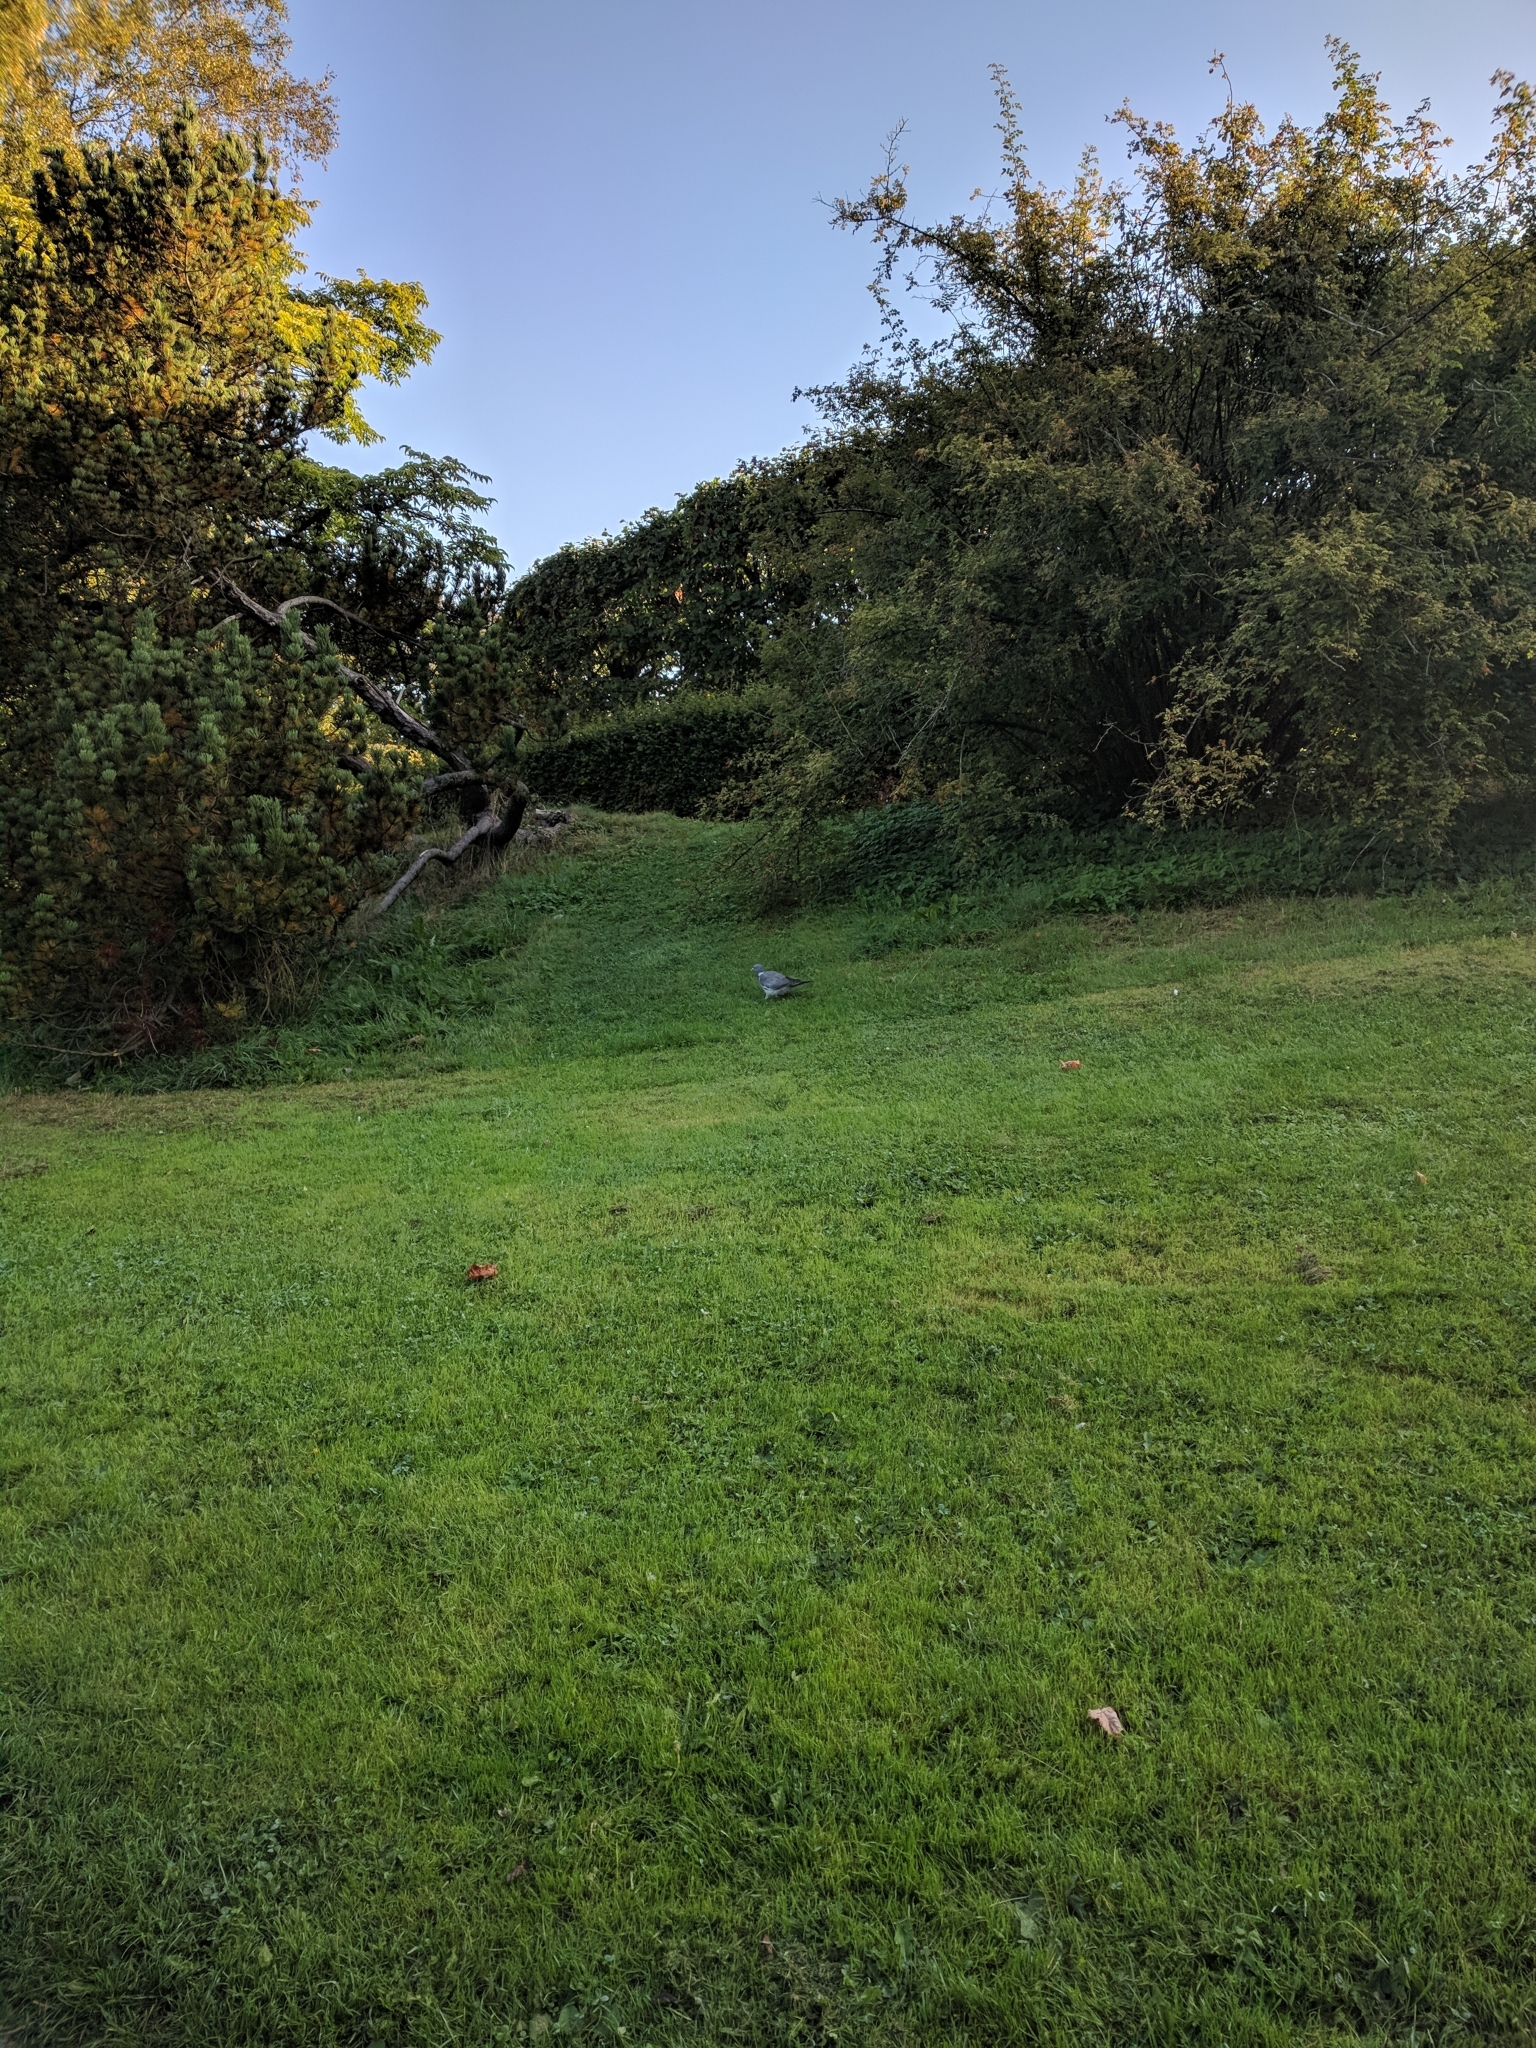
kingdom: Animalia
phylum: Chordata
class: Aves
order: Columbiformes
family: Columbidae
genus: Columba
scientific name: Columba palumbus
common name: Common wood pigeon
